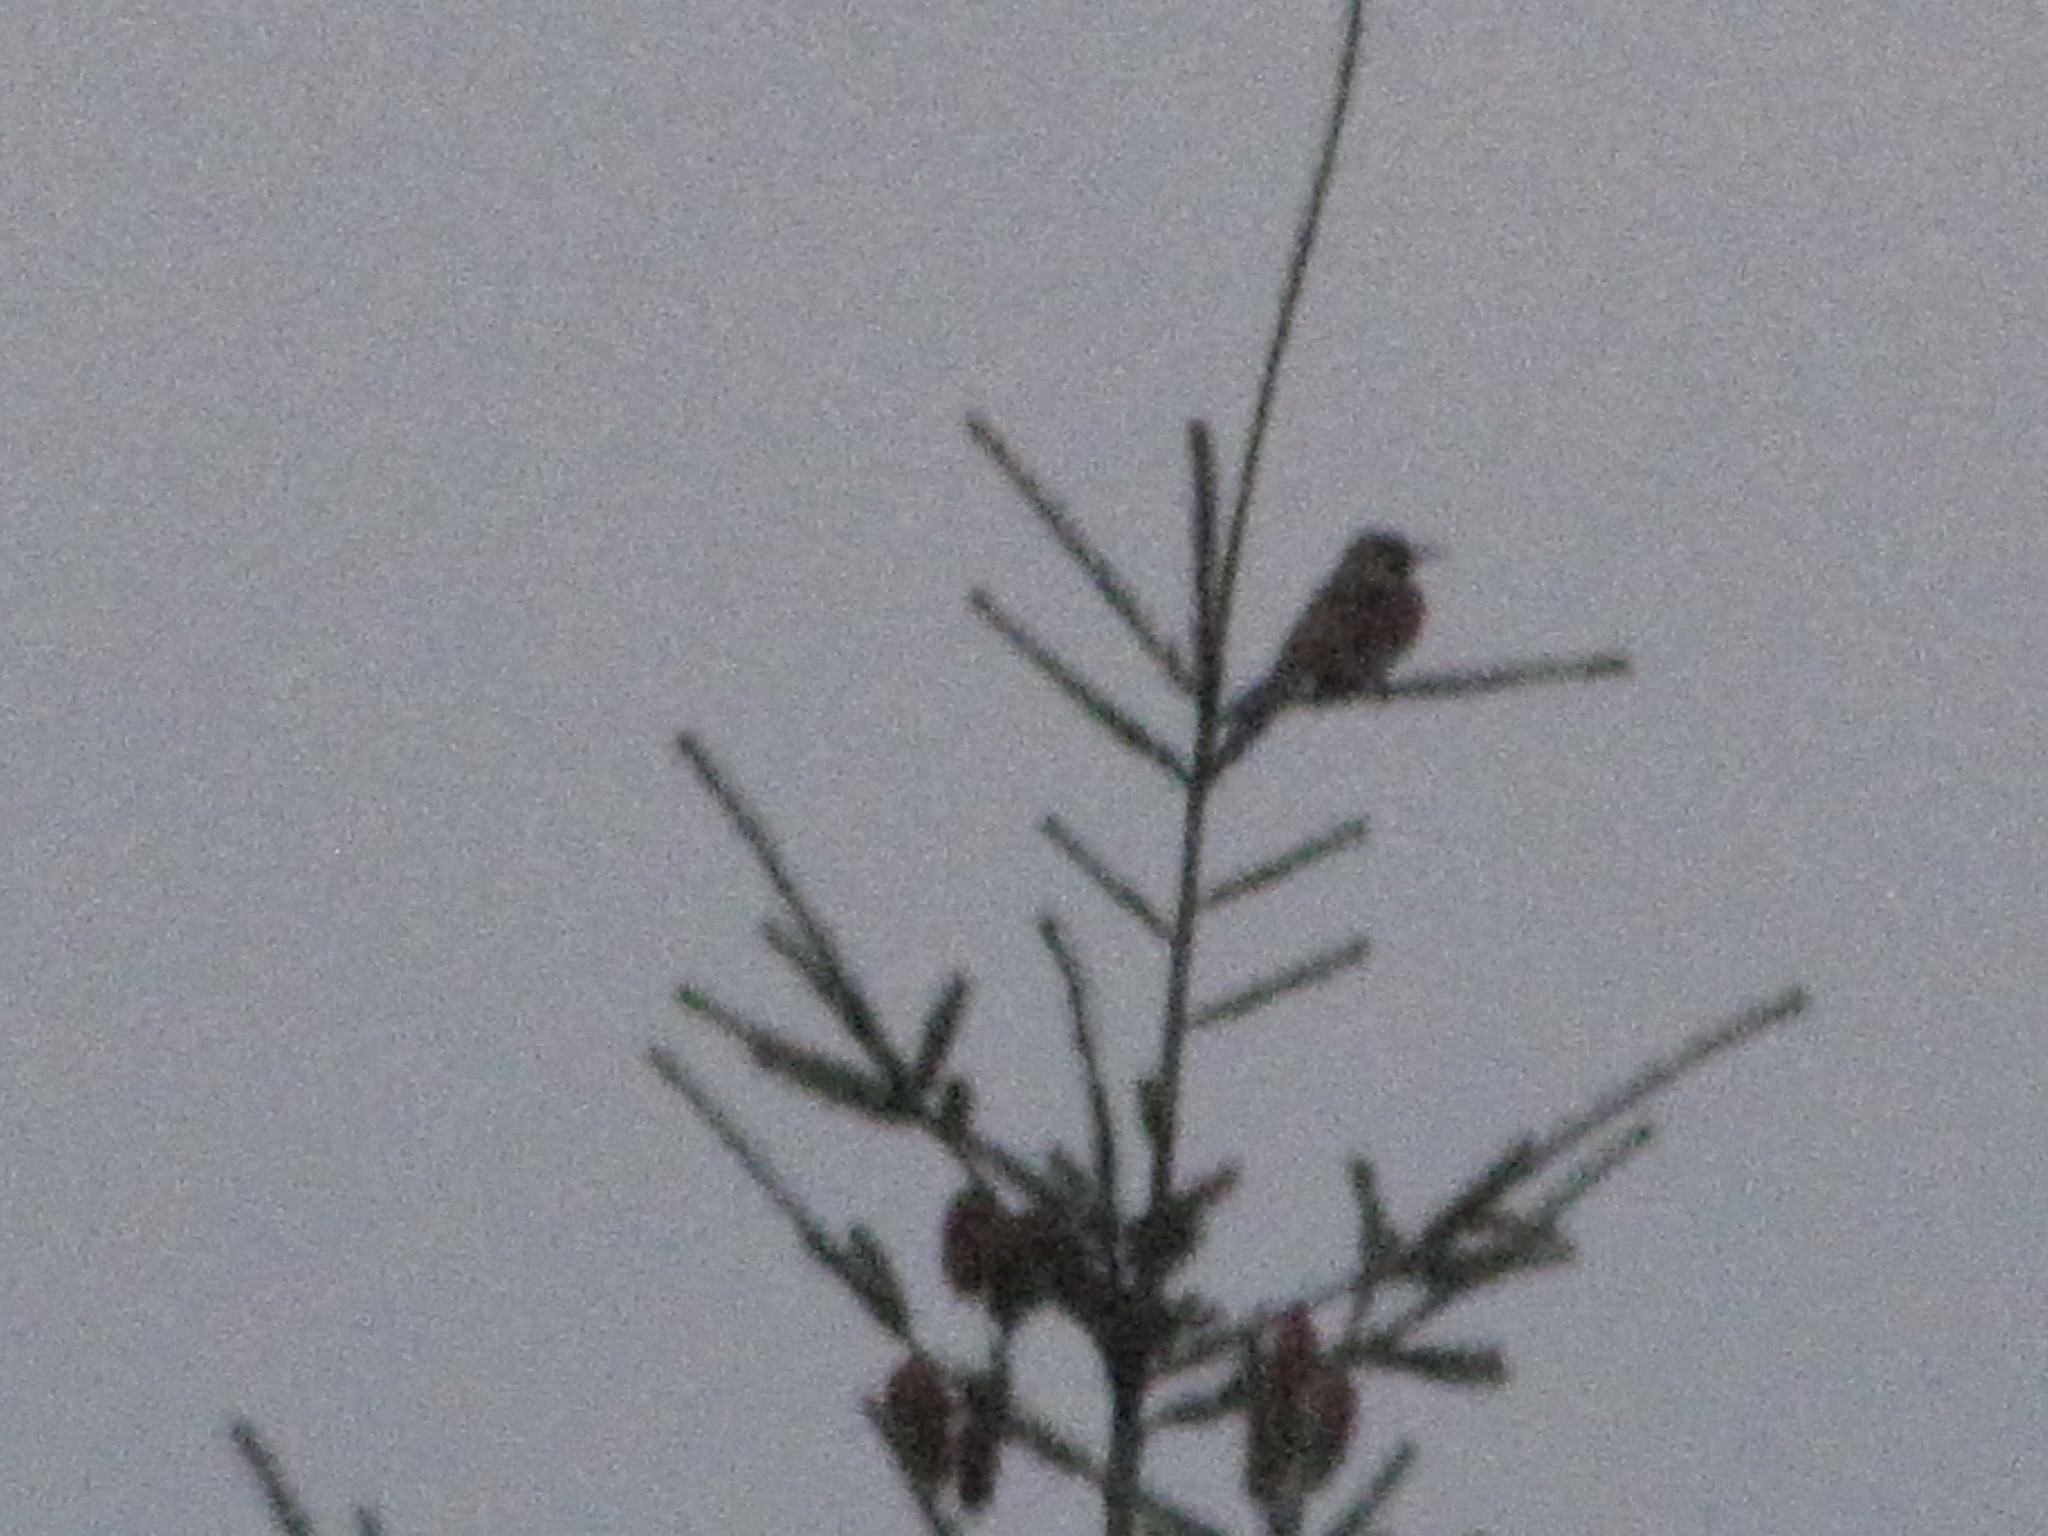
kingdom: Animalia
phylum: Chordata
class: Aves
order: Piciformes
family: Picidae
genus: Colaptes
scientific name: Colaptes auratus
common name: Northern flicker
